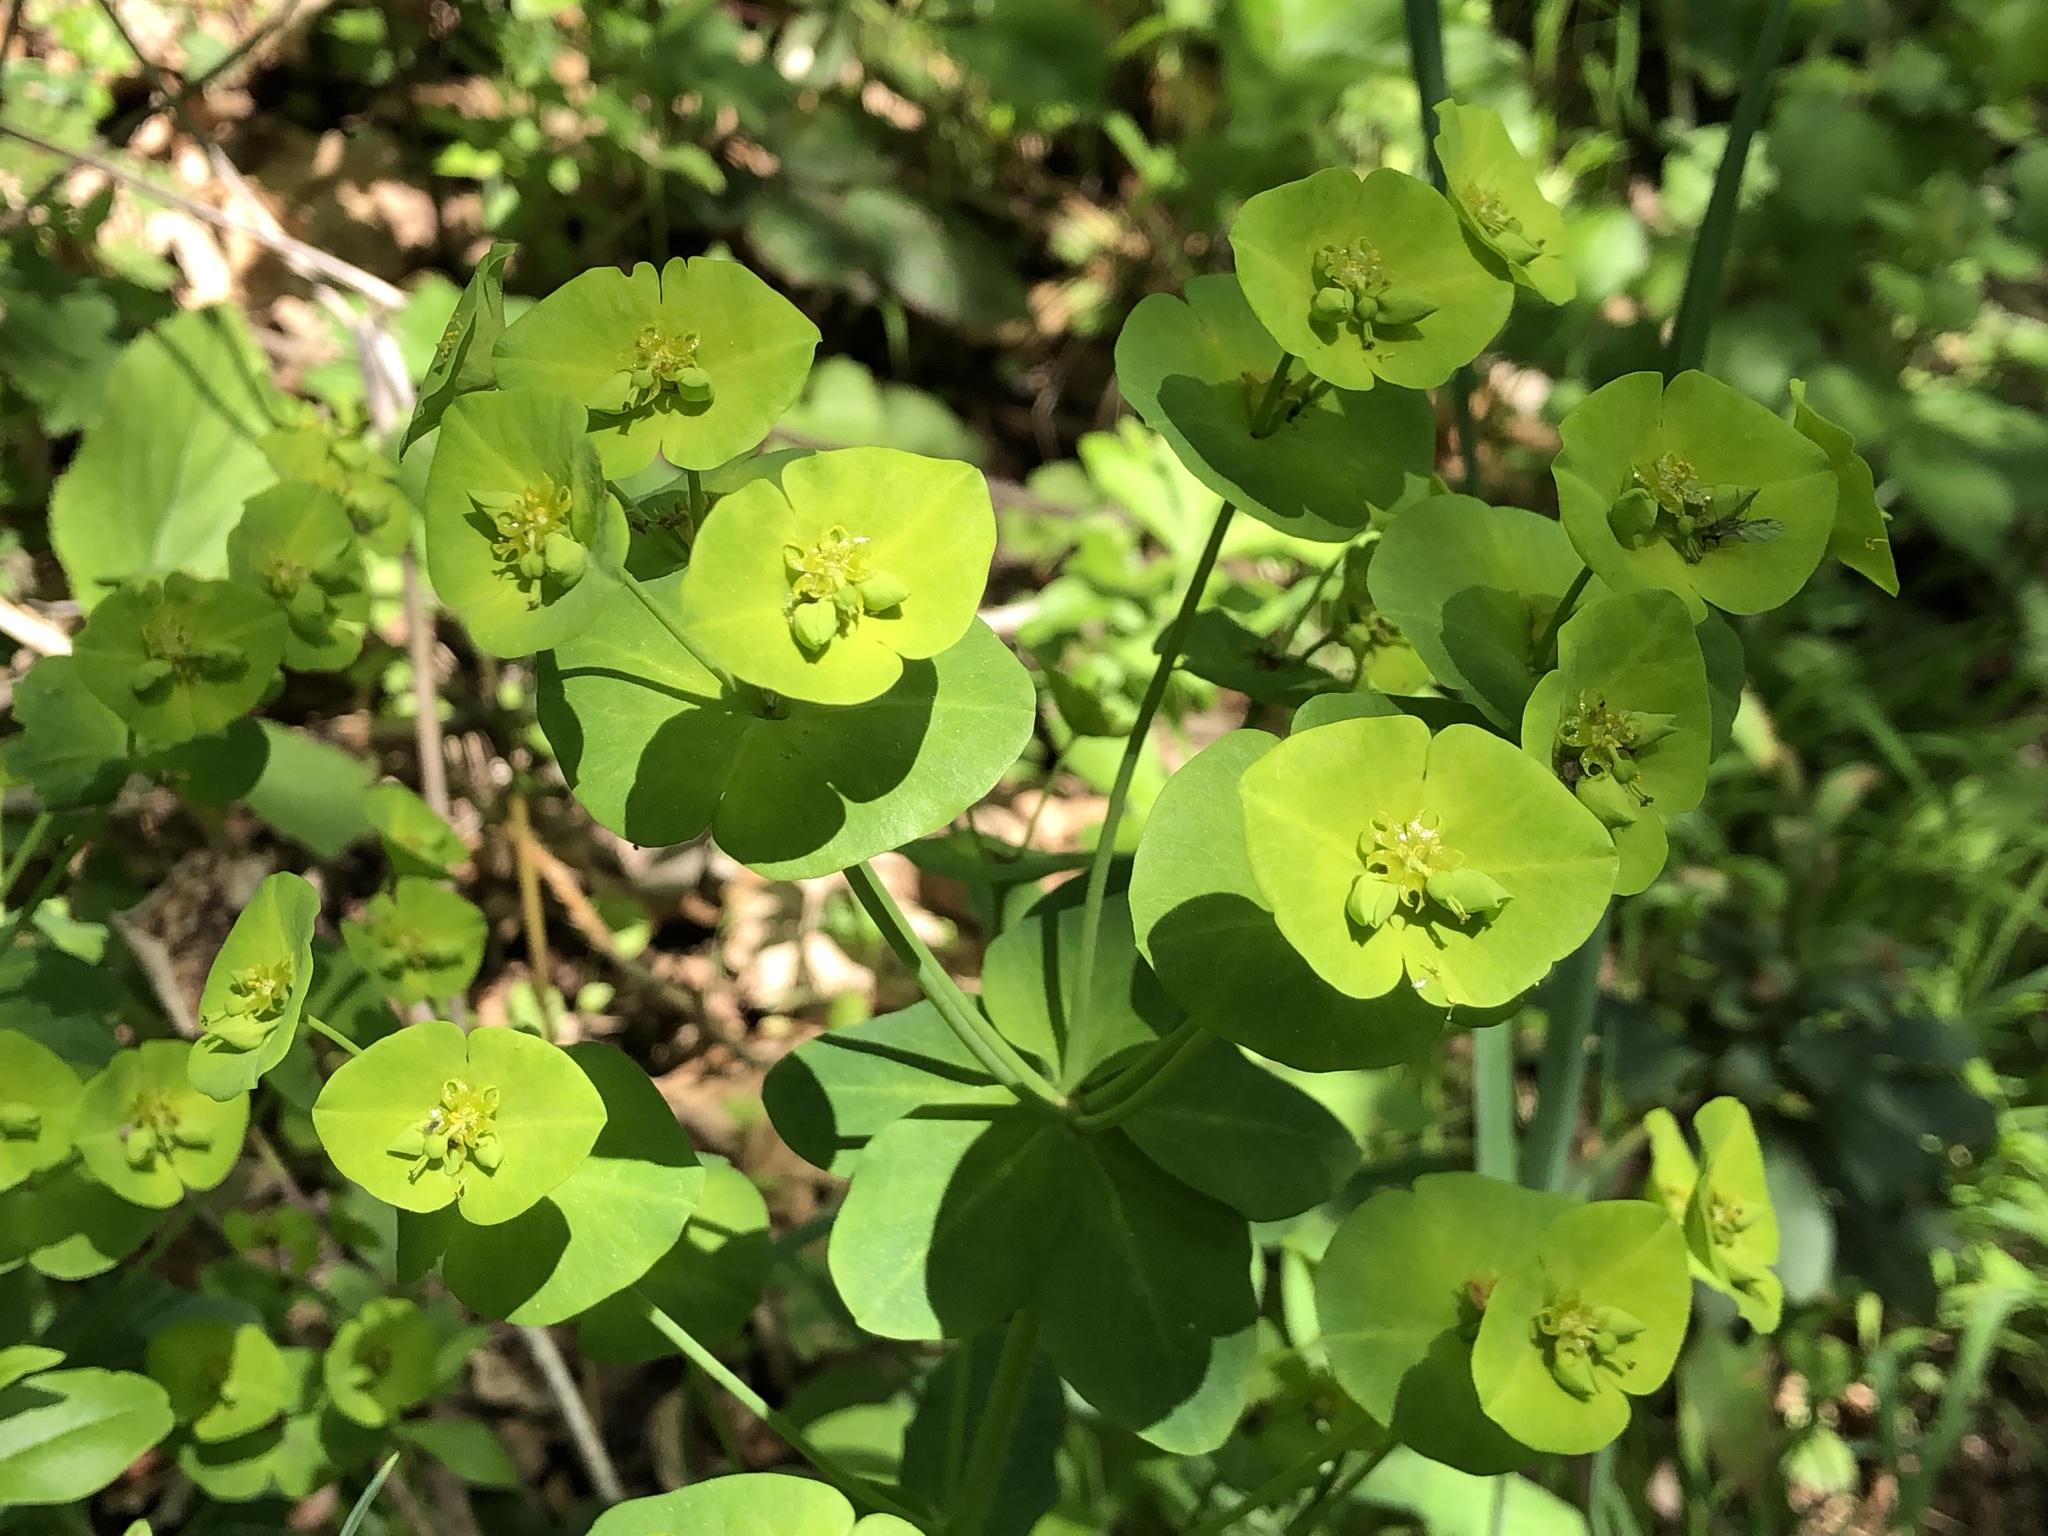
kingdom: Plantae
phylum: Tracheophyta
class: Magnoliopsida
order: Malpighiales
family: Euphorbiaceae
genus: Euphorbia
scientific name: Euphorbia amygdaloides
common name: Wood spurge
